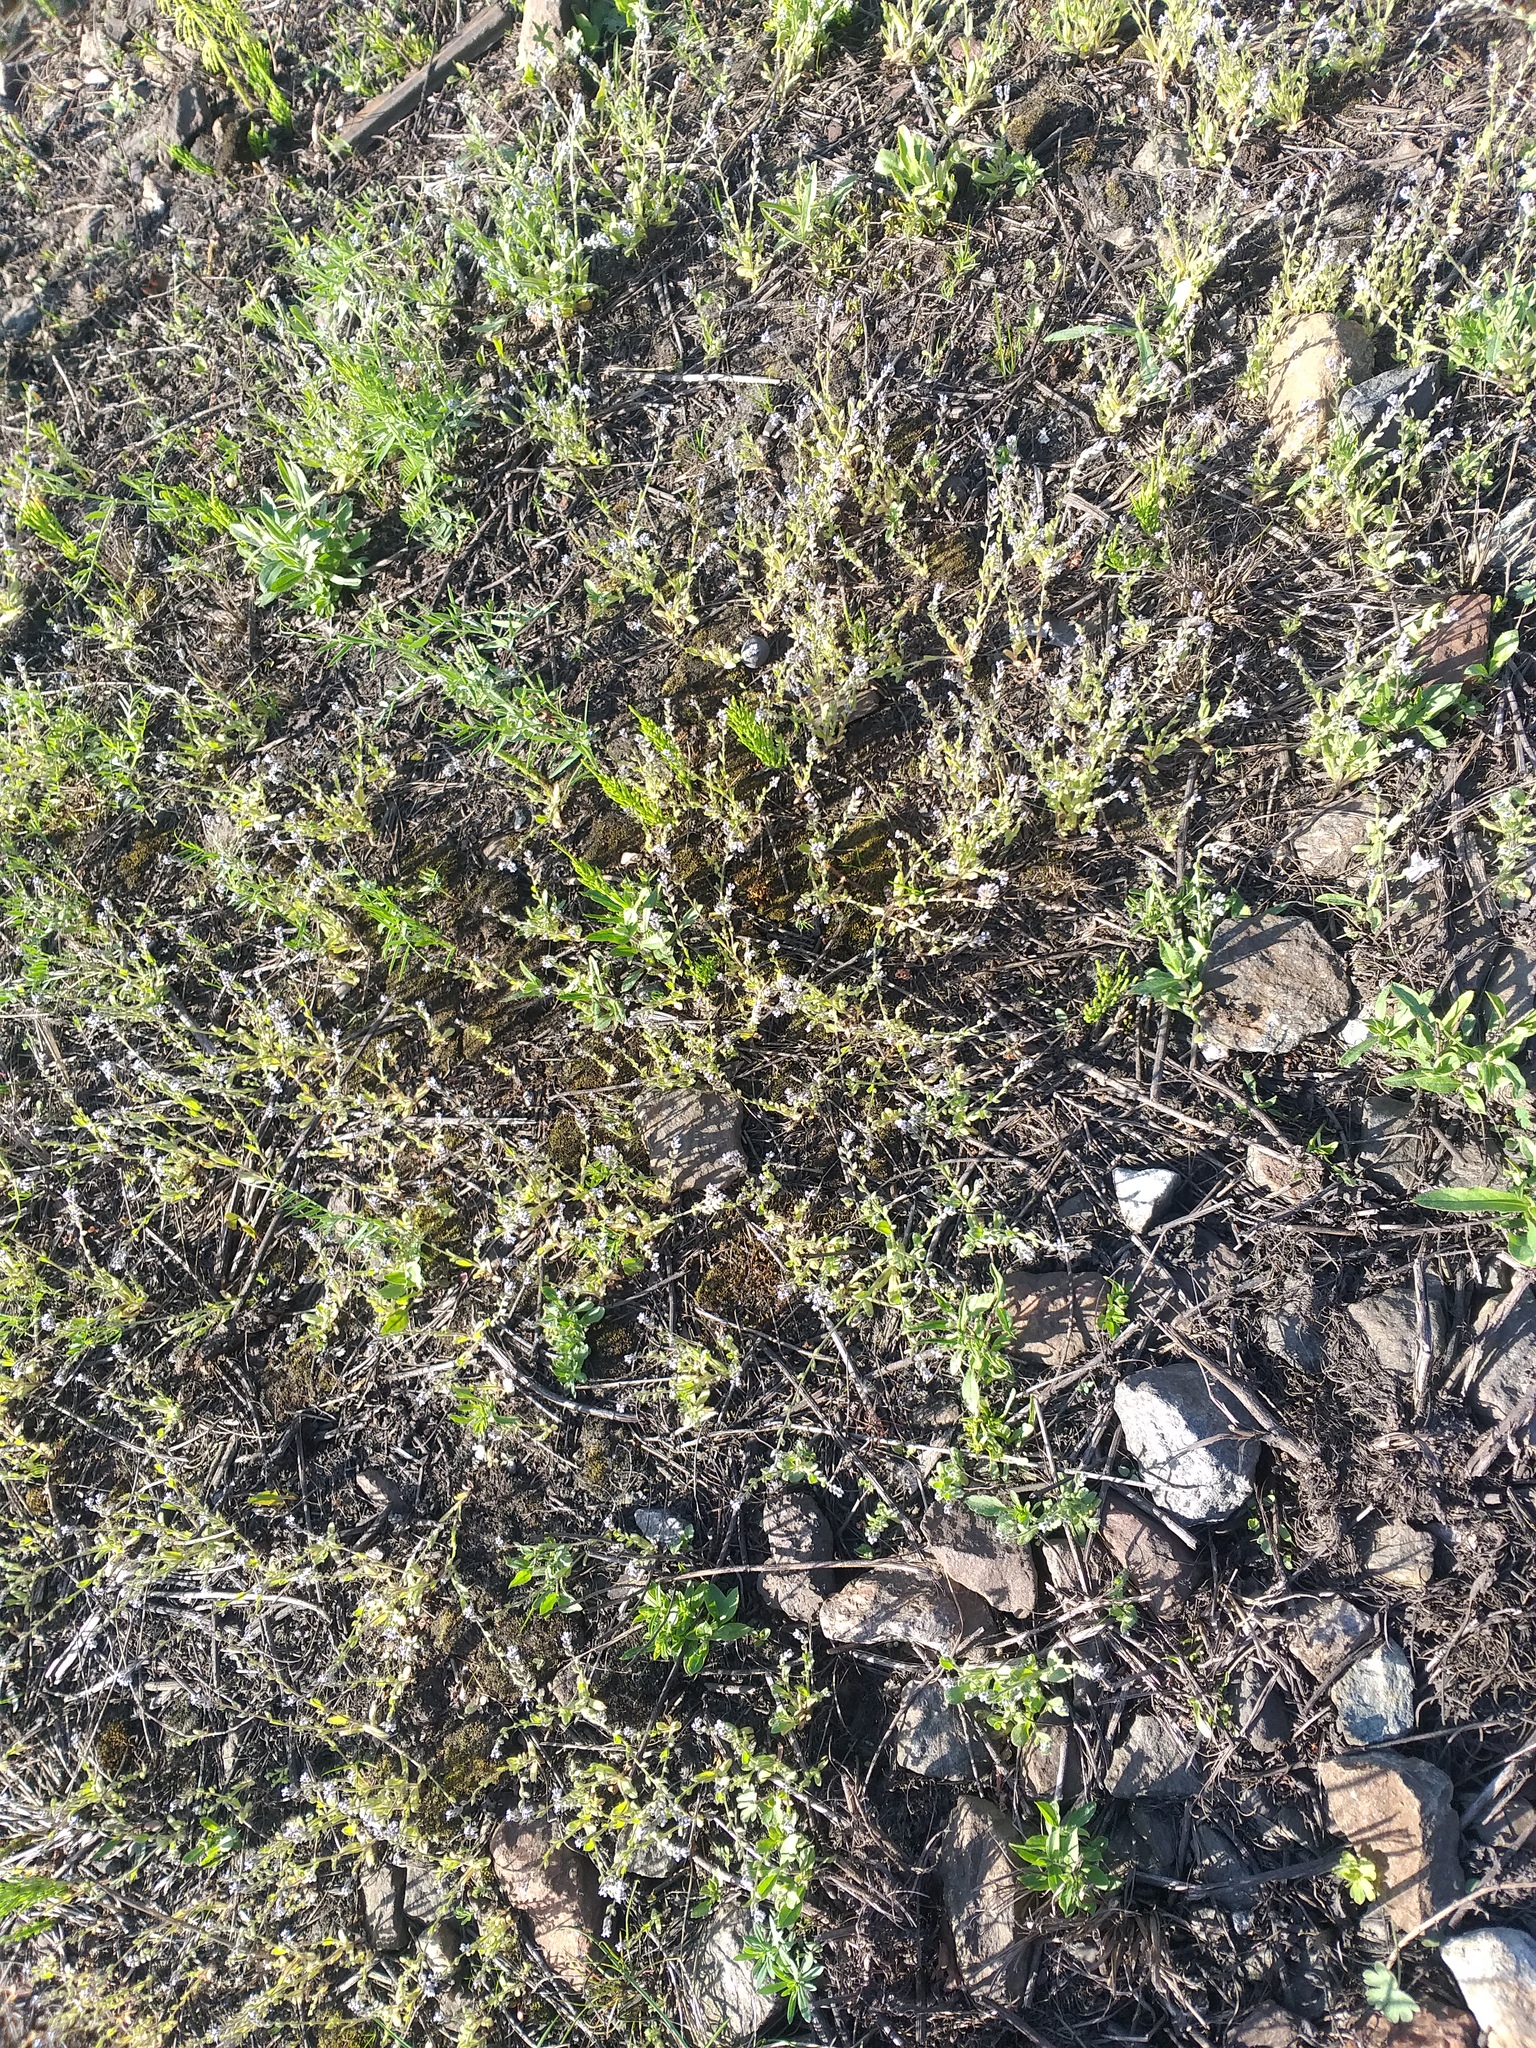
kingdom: Plantae
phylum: Tracheophyta
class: Magnoliopsida
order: Boraginales
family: Boraginaceae
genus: Myosotis
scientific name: Myosotis stricta
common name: Strict forget-me-not
